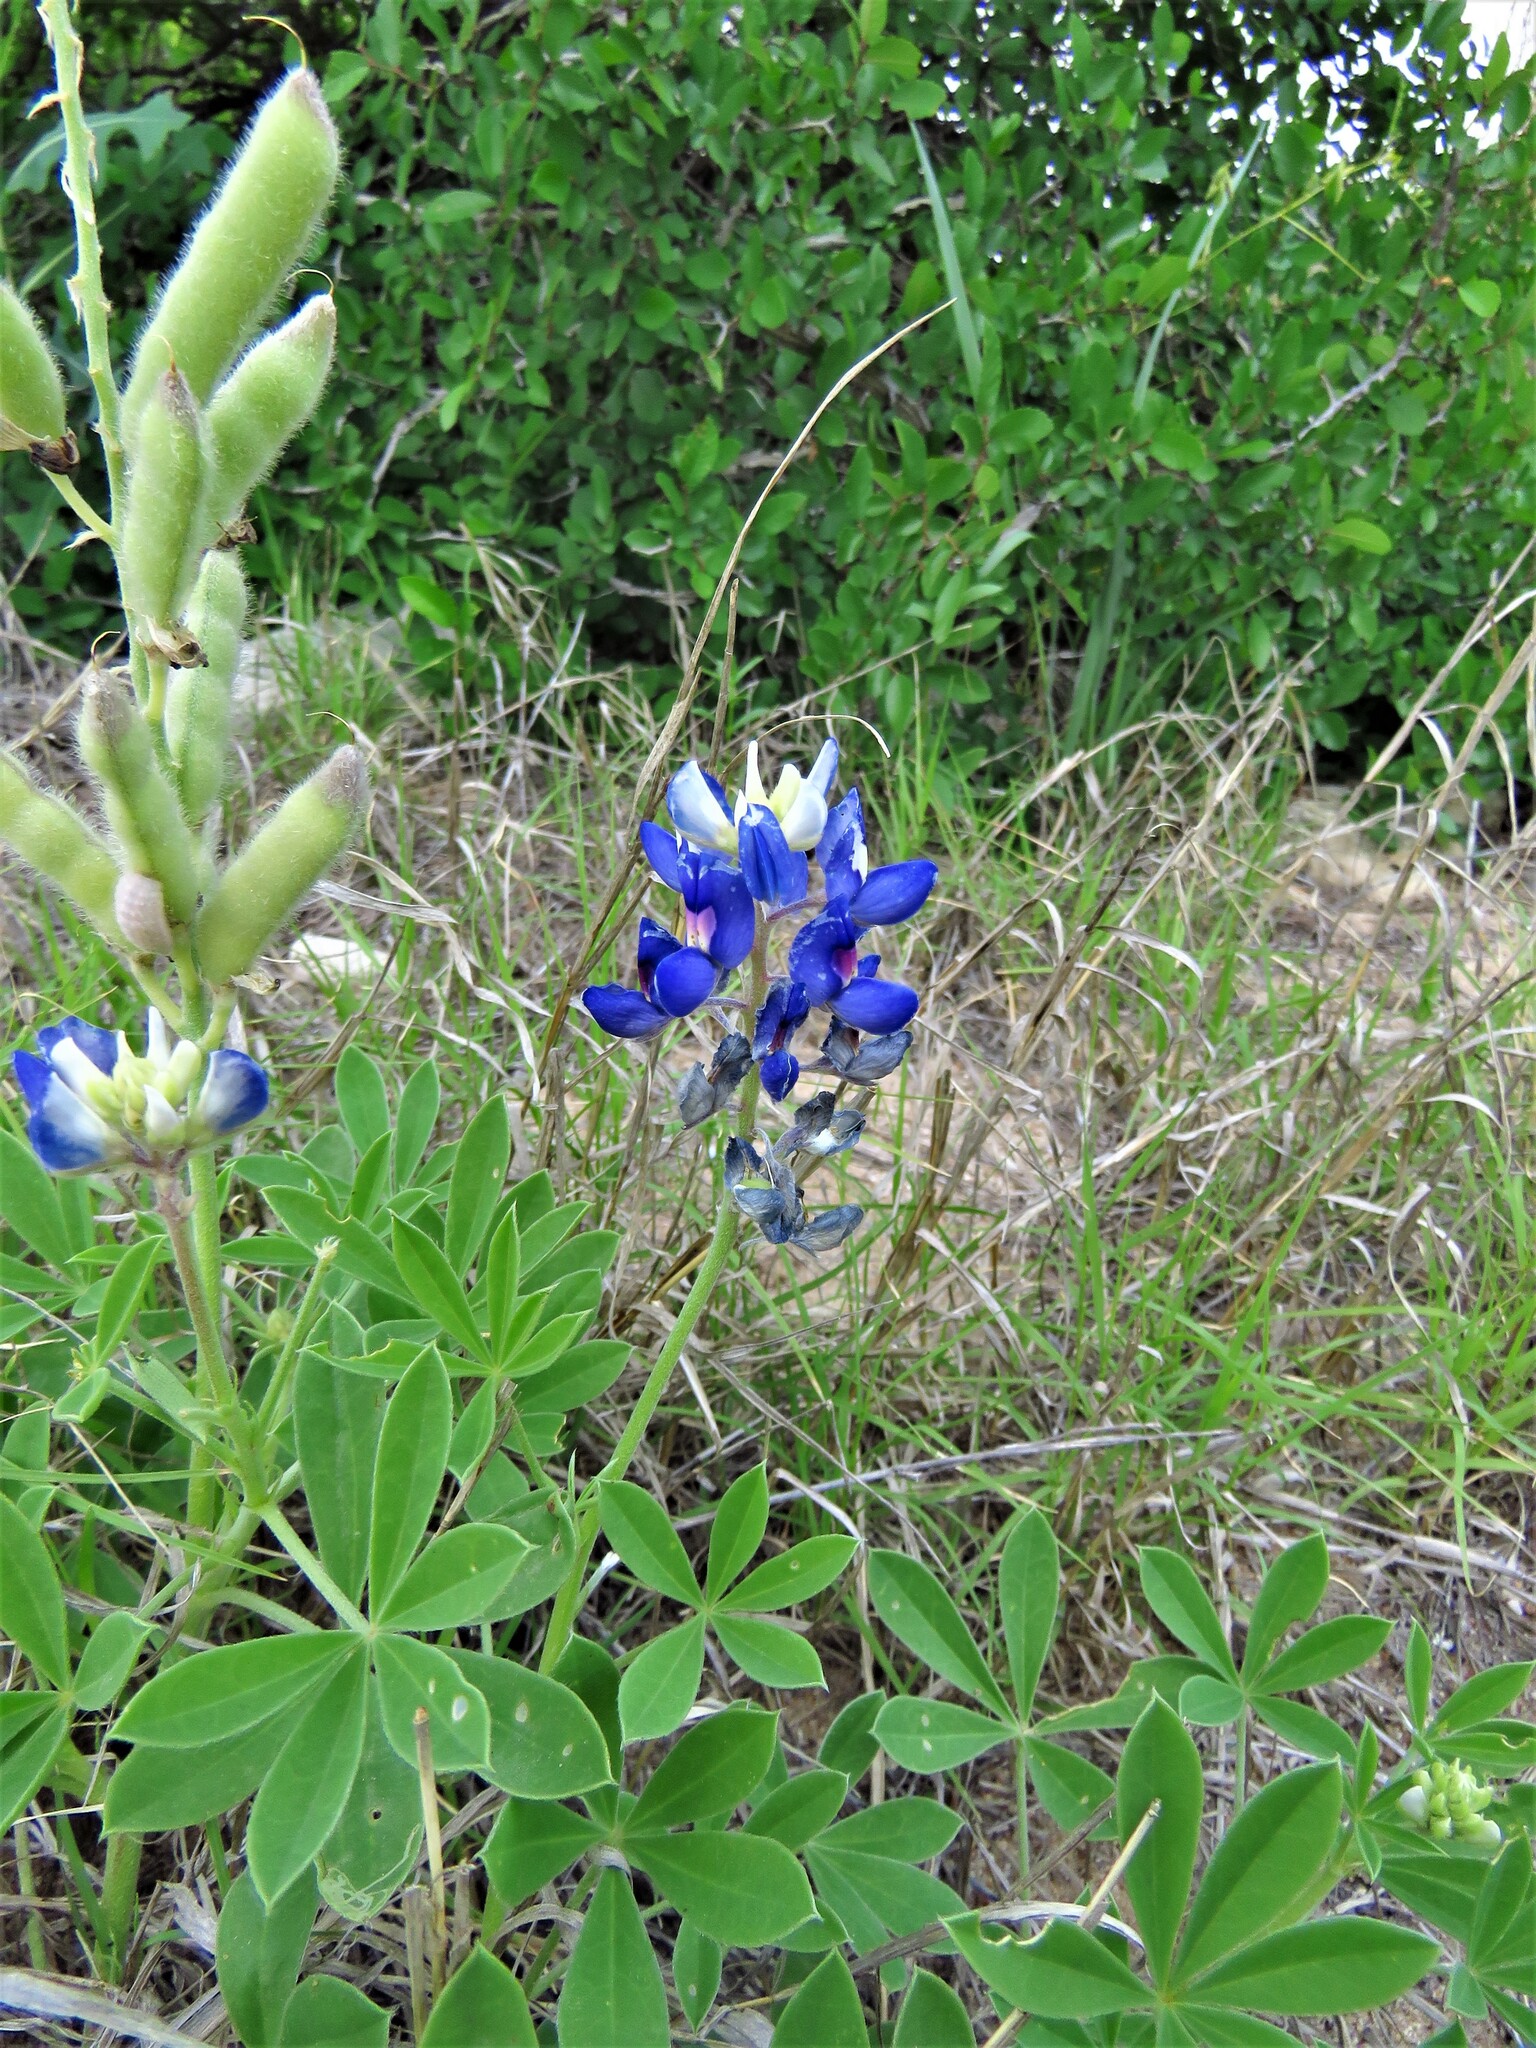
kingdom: Plantae
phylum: Tracheophyta
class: Magnoliopsida
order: Fabales
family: Fabaceae
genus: Lupinus
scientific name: Lupinus texensis
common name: Texas bluebonnet
